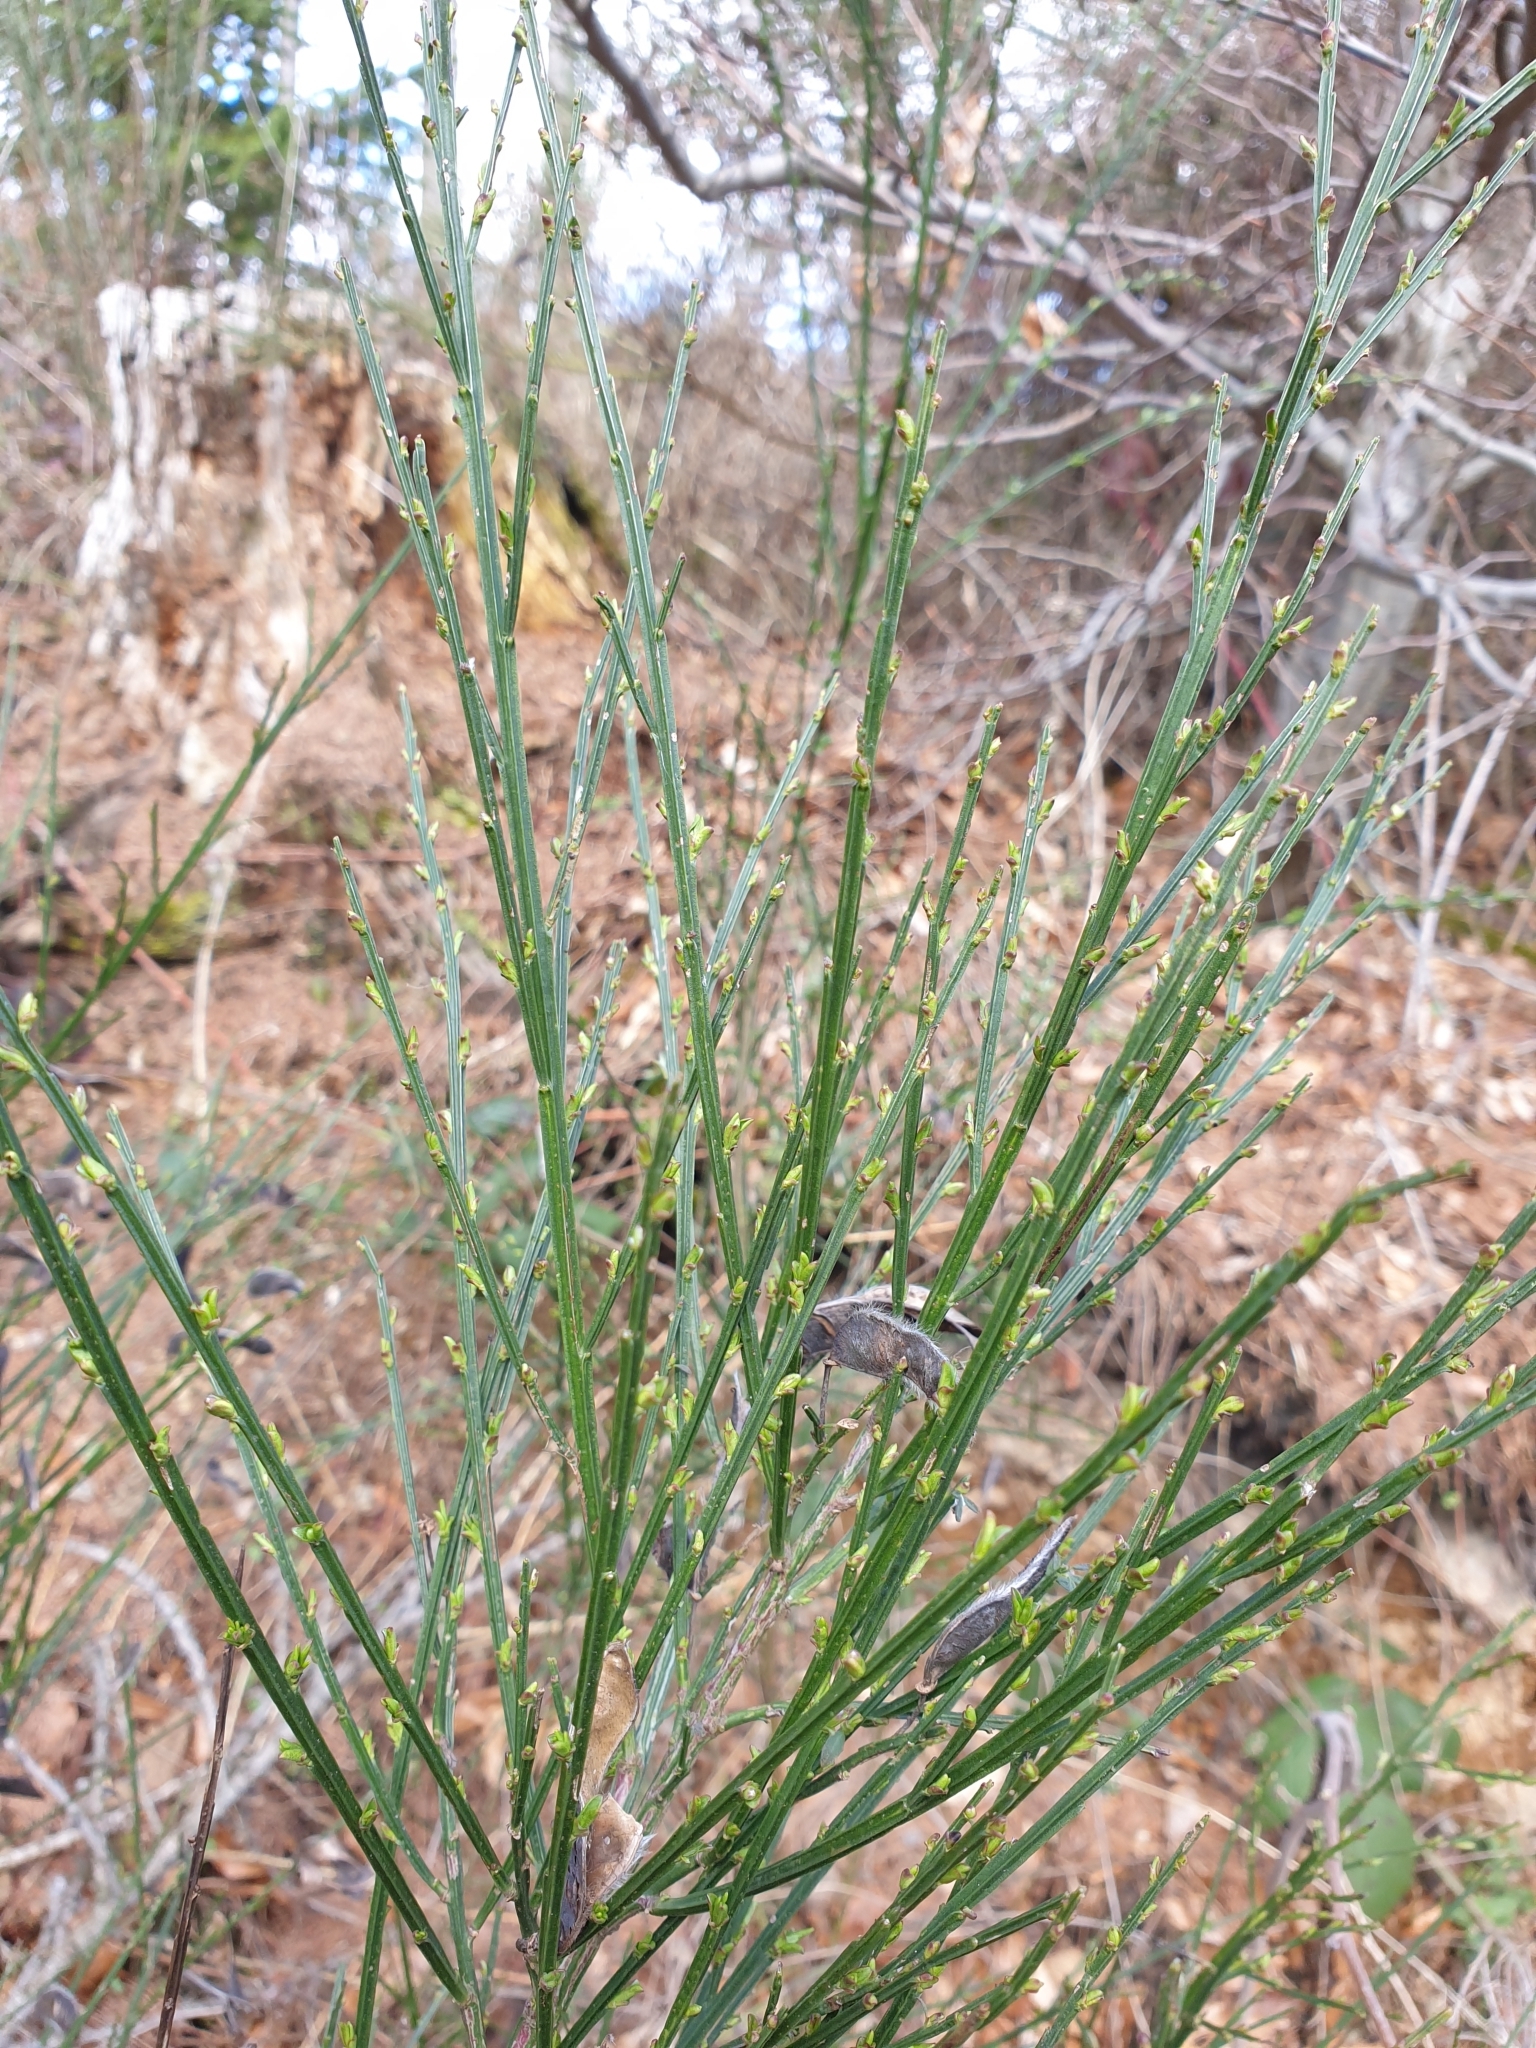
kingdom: Plantae
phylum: Tracheophyta
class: Magnoliopsida
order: Fabales
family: Fabaceae
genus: Cytisus
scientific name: Cytisus scoparius
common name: Scotch broom
